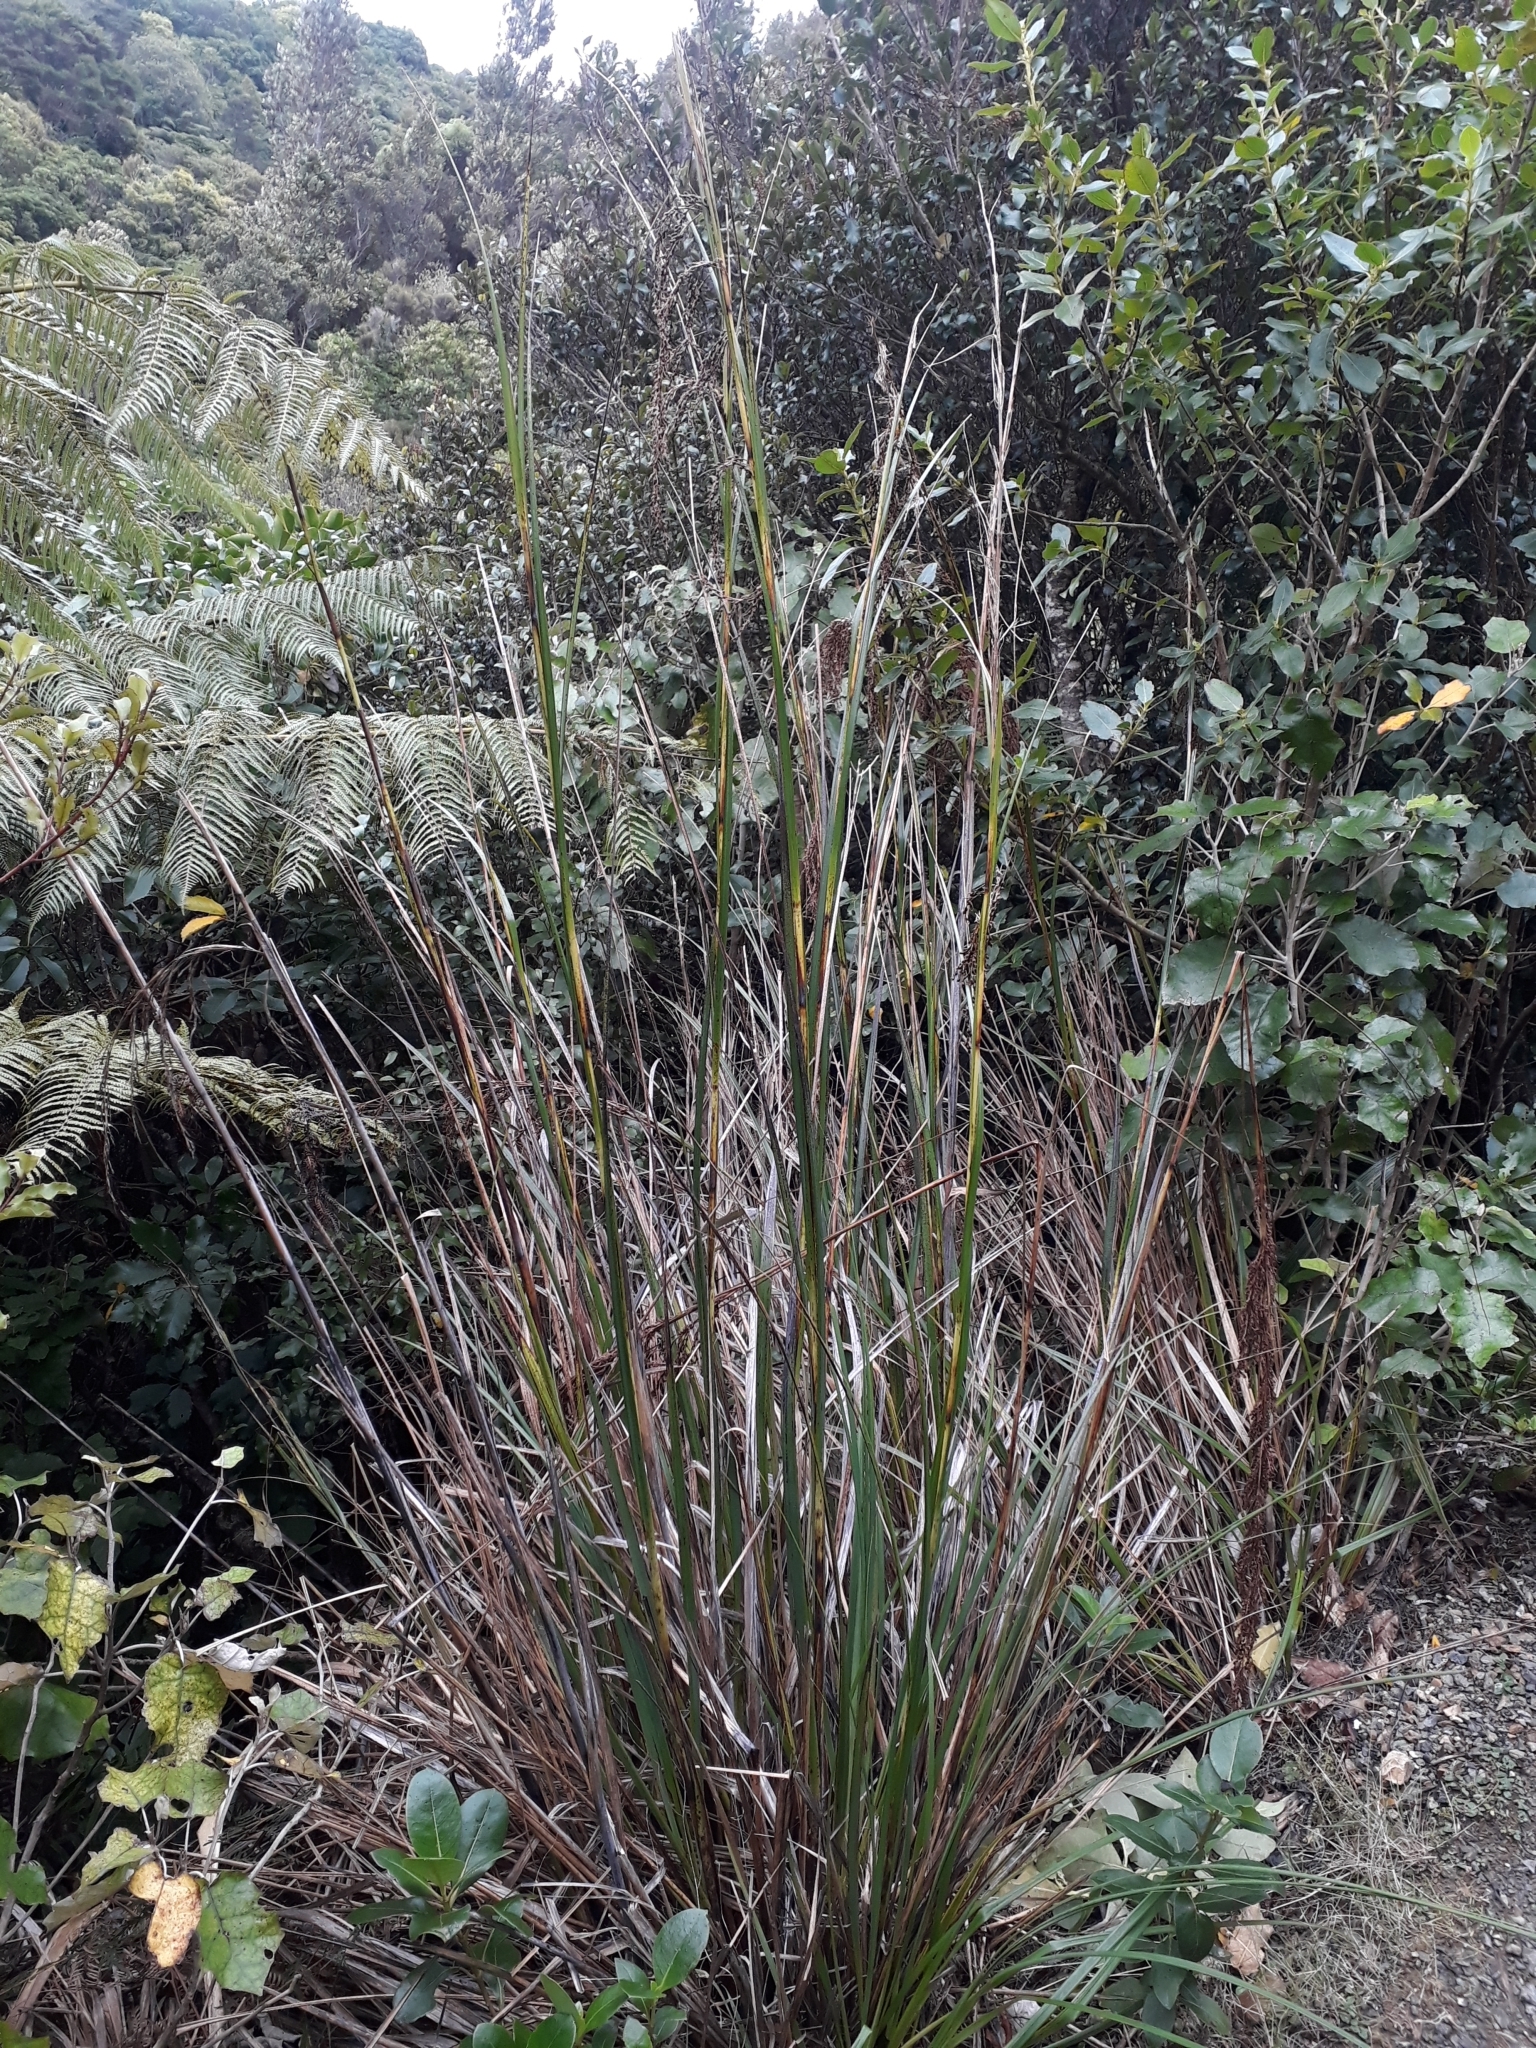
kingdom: Plantae
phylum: Tracheophyta
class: Liliopsida
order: Poales
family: Cyperaceae
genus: Gahnia
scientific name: Gahnia setifolia
